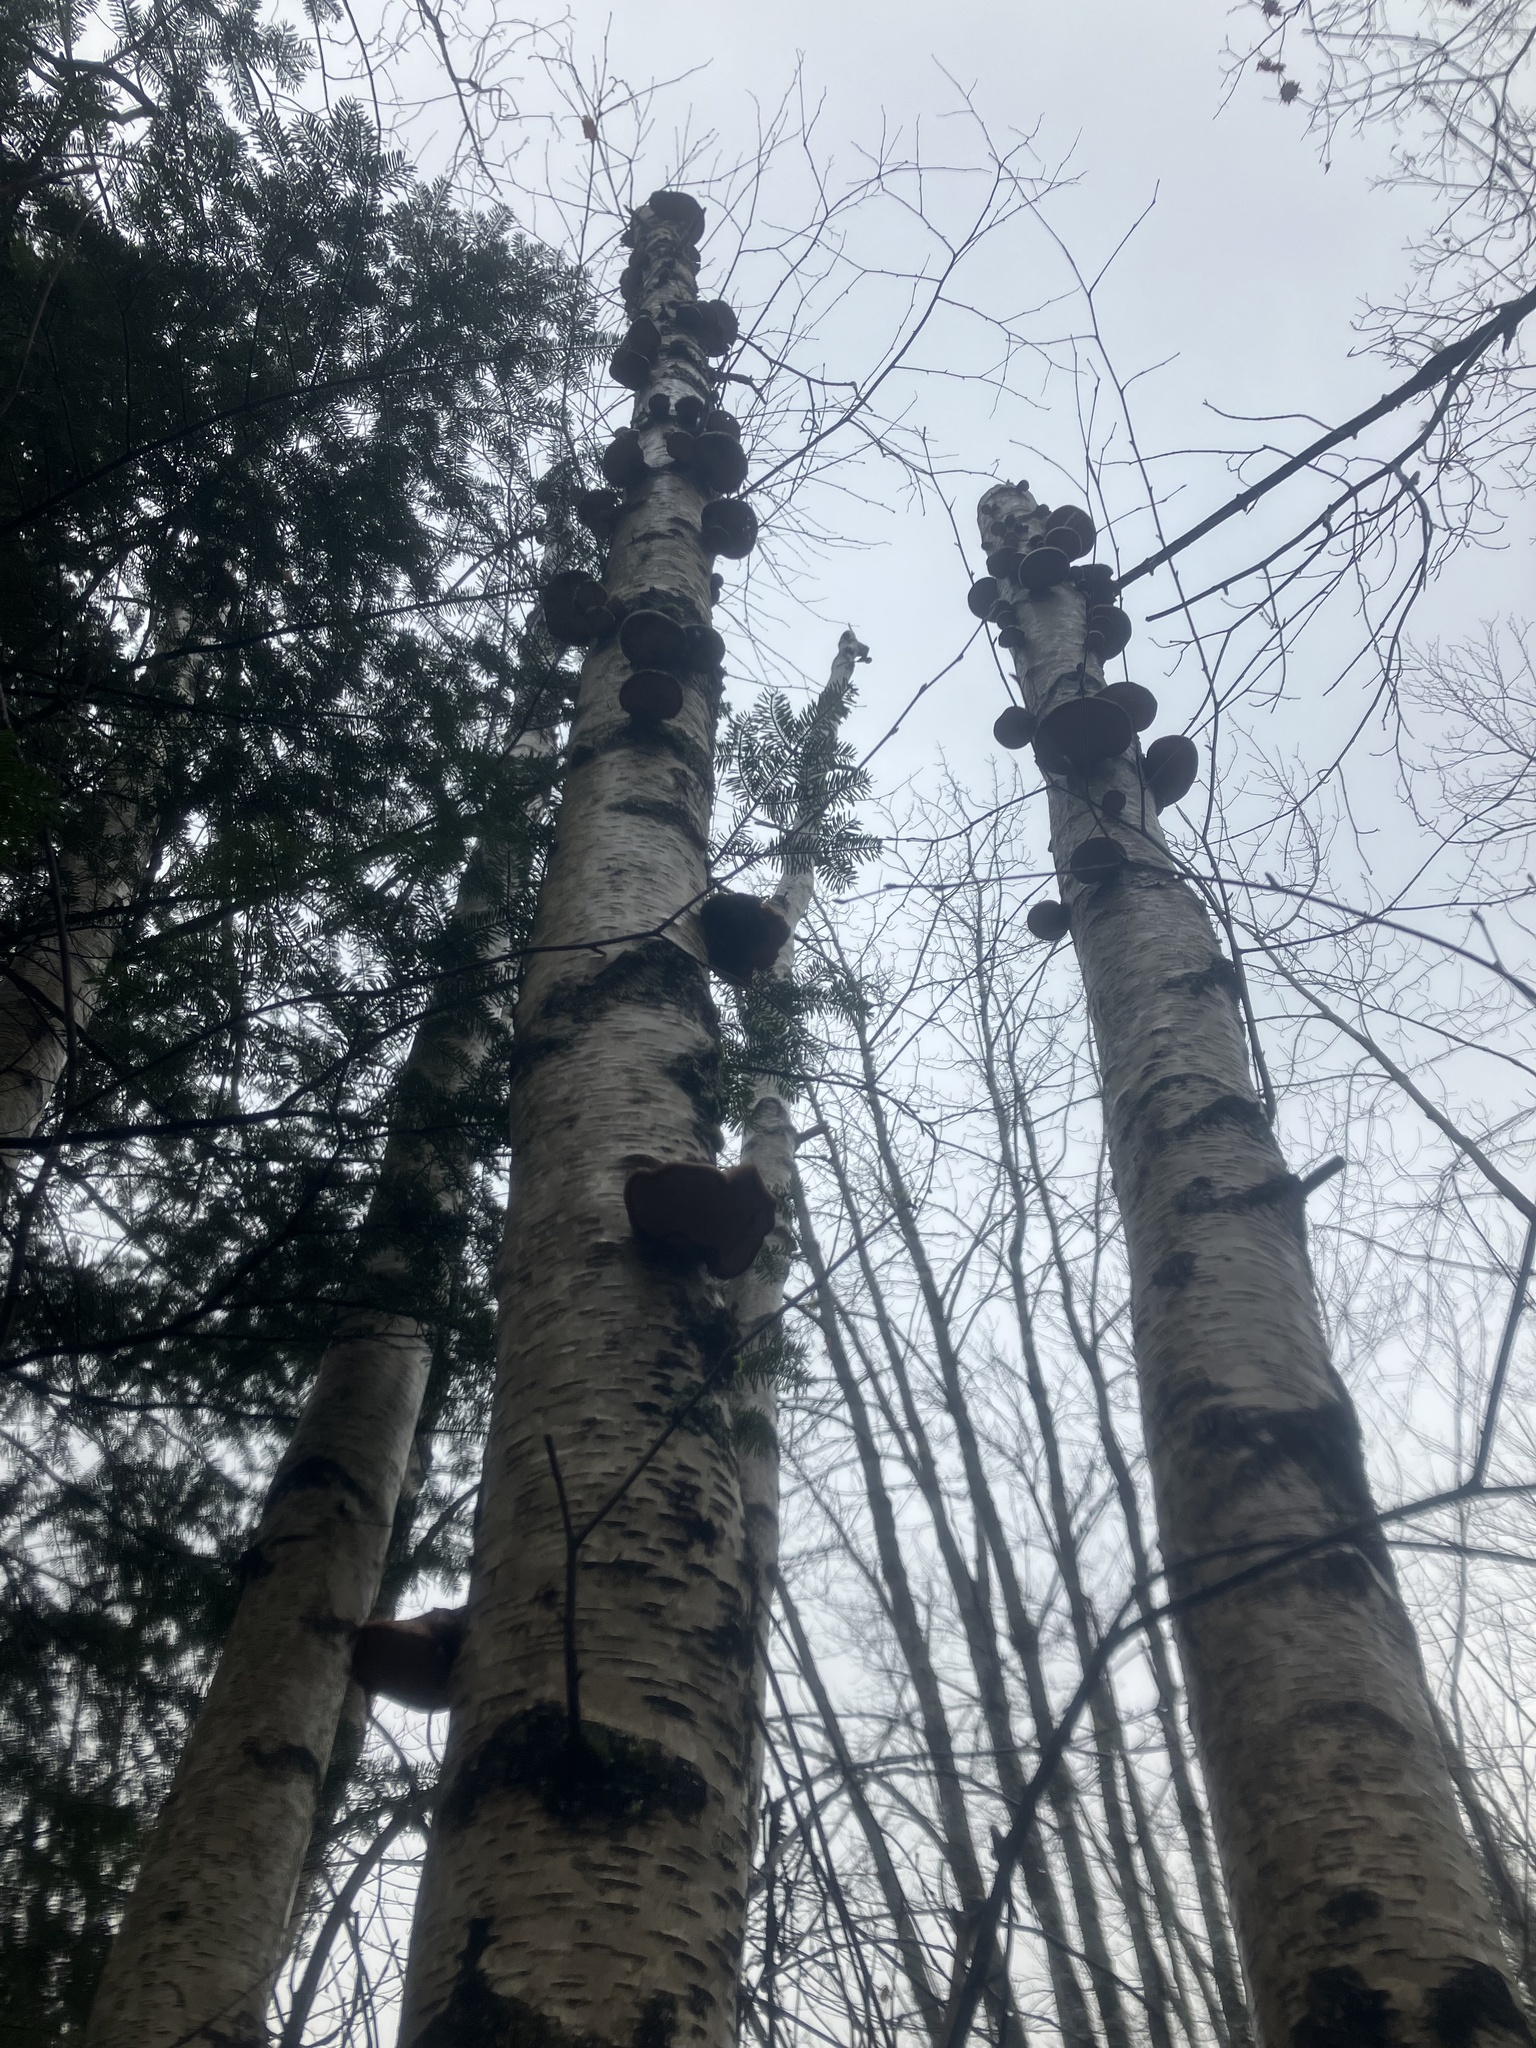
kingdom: Fungi
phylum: Basidiomycota
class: Agaricomycetes
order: Polyporales
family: Fomitopsidaceae
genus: Fomitopsis
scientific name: Fomitopsis betulina
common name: Birch polypore
